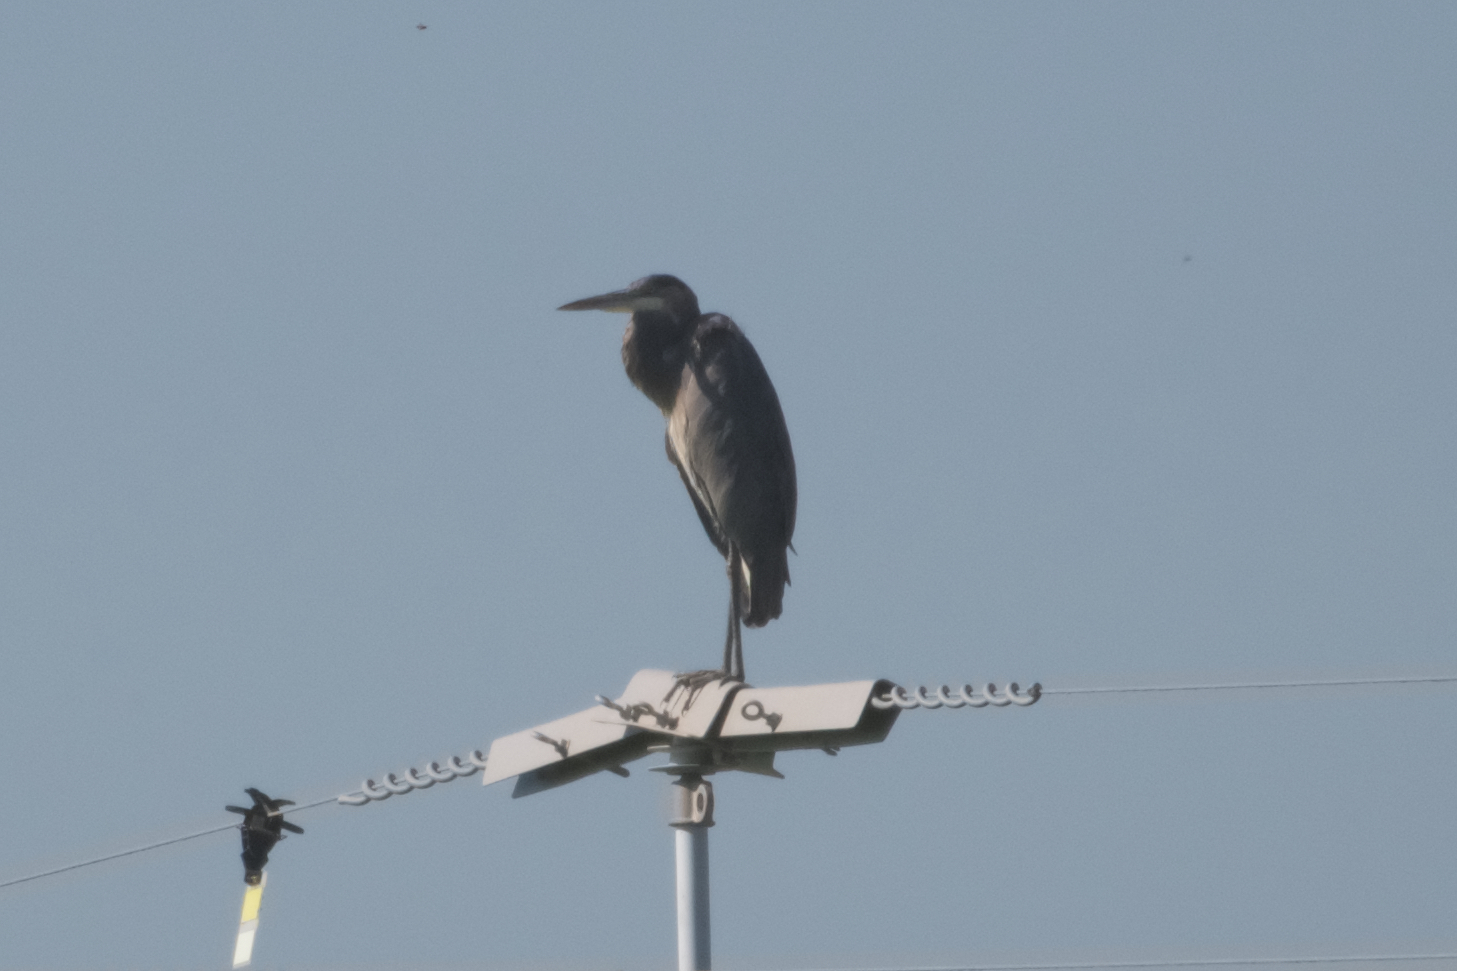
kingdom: Animalia
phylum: Chordata
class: Aves
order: Pelecaniformes
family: Ardeidae
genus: Ardea
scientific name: Ardea herodias
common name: Great blue heron
